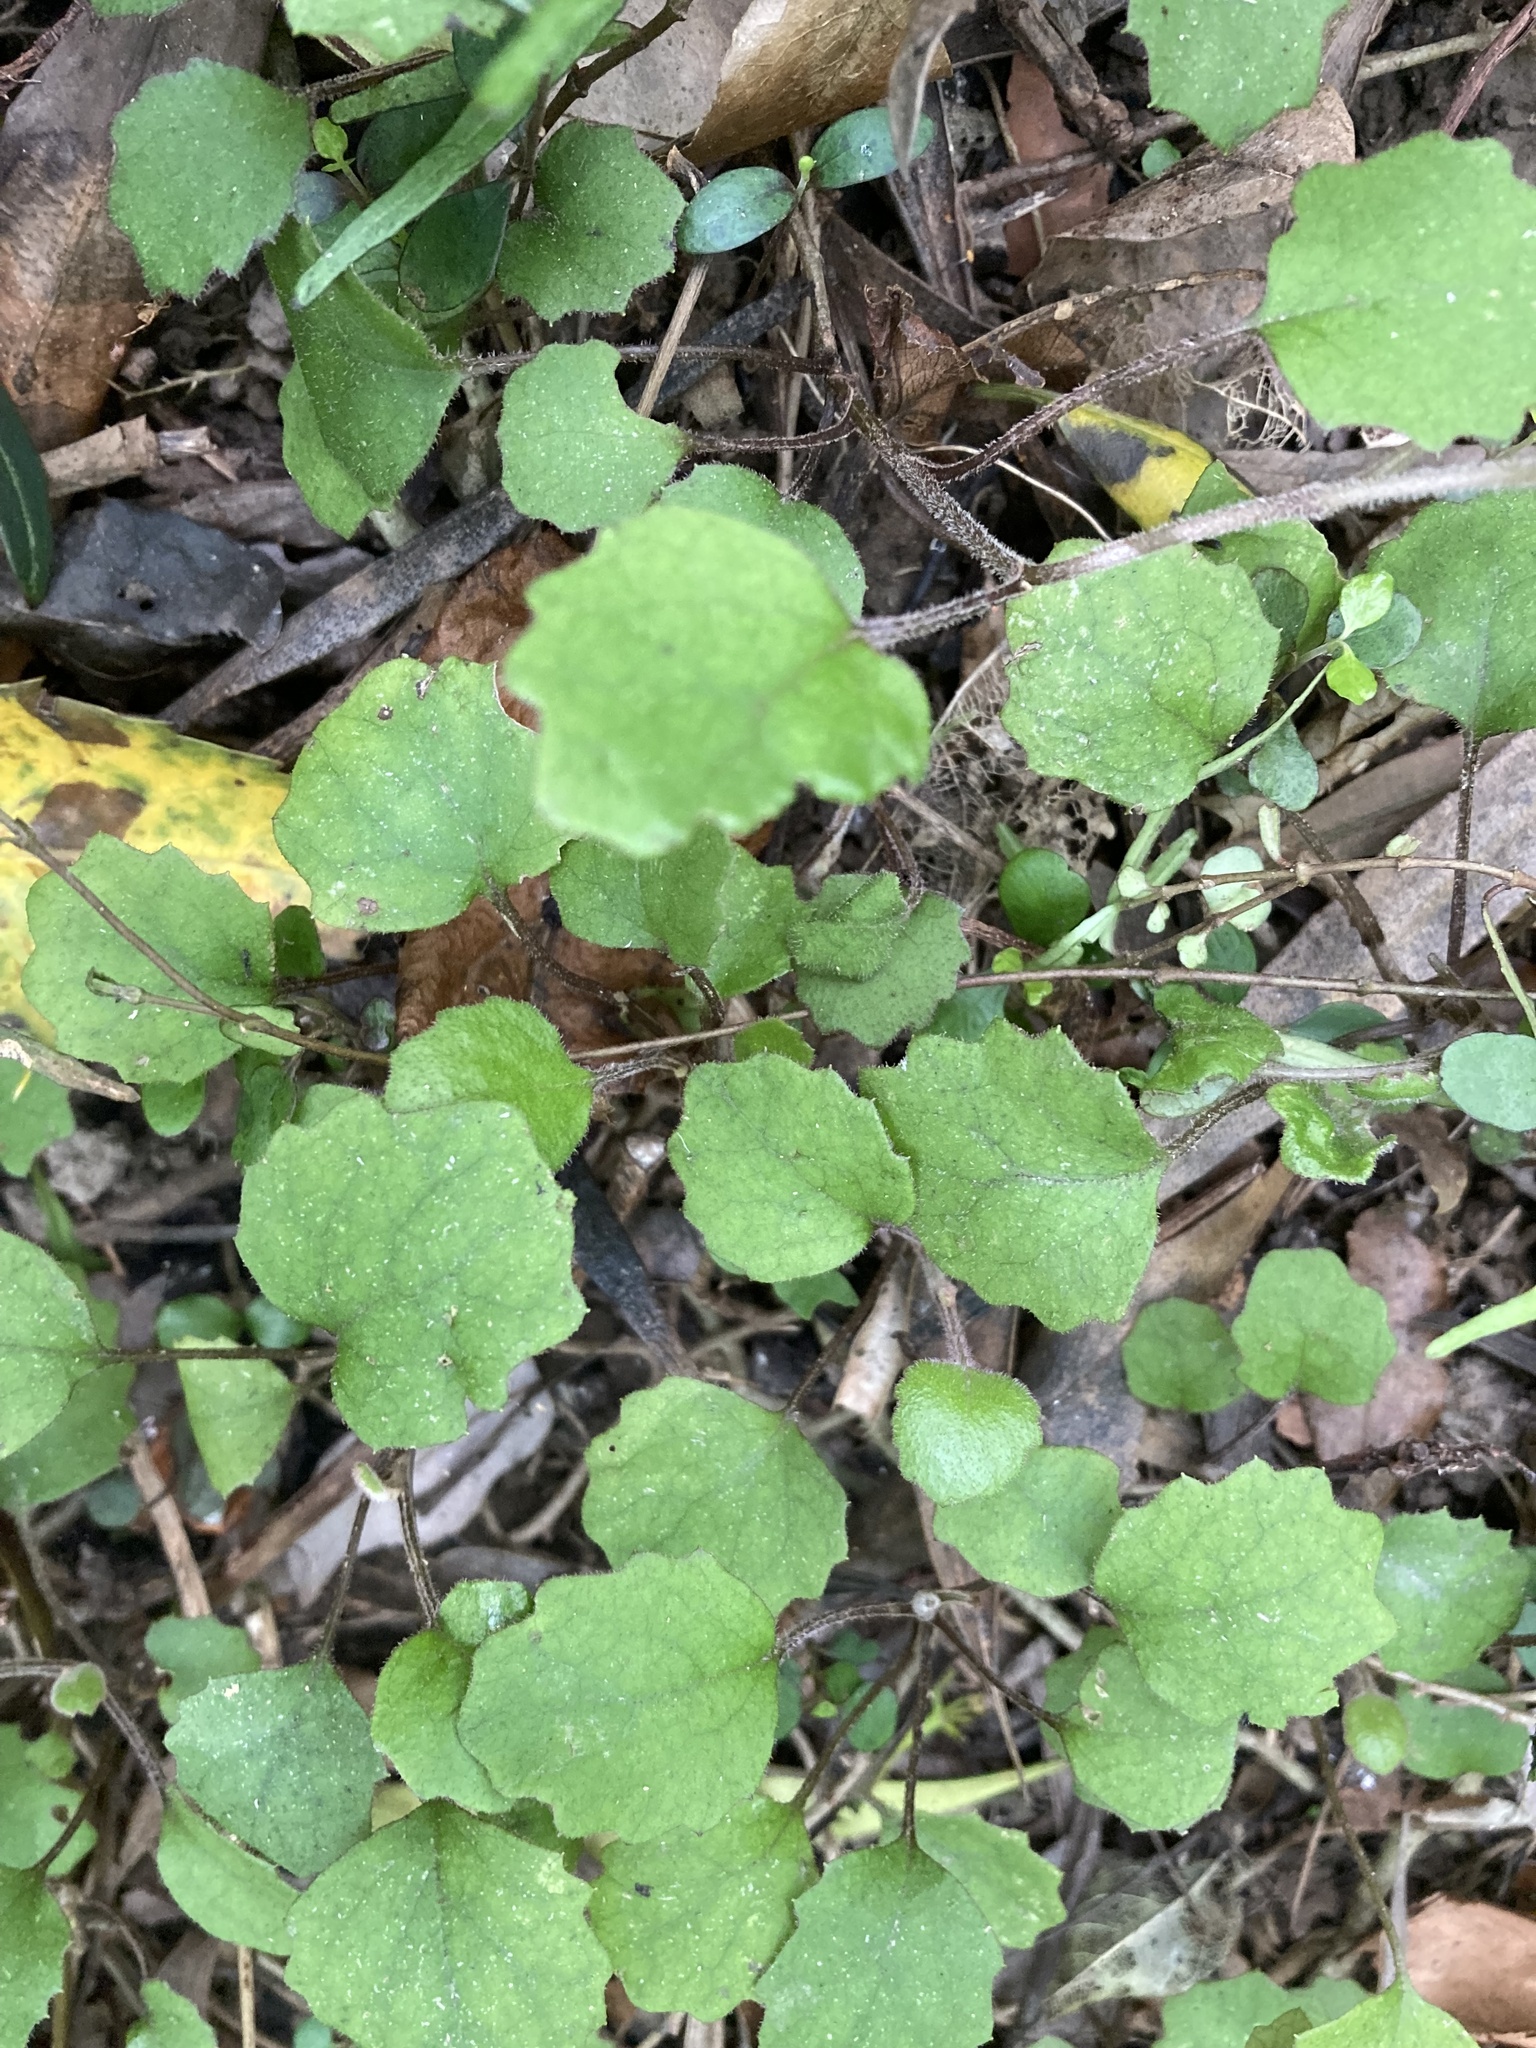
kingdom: Plantae
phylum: Tracheophyta
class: Magnoliopsida
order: Asterales
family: Asteraceae
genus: Brachyglottis
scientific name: Brachyglottis sciadophila
